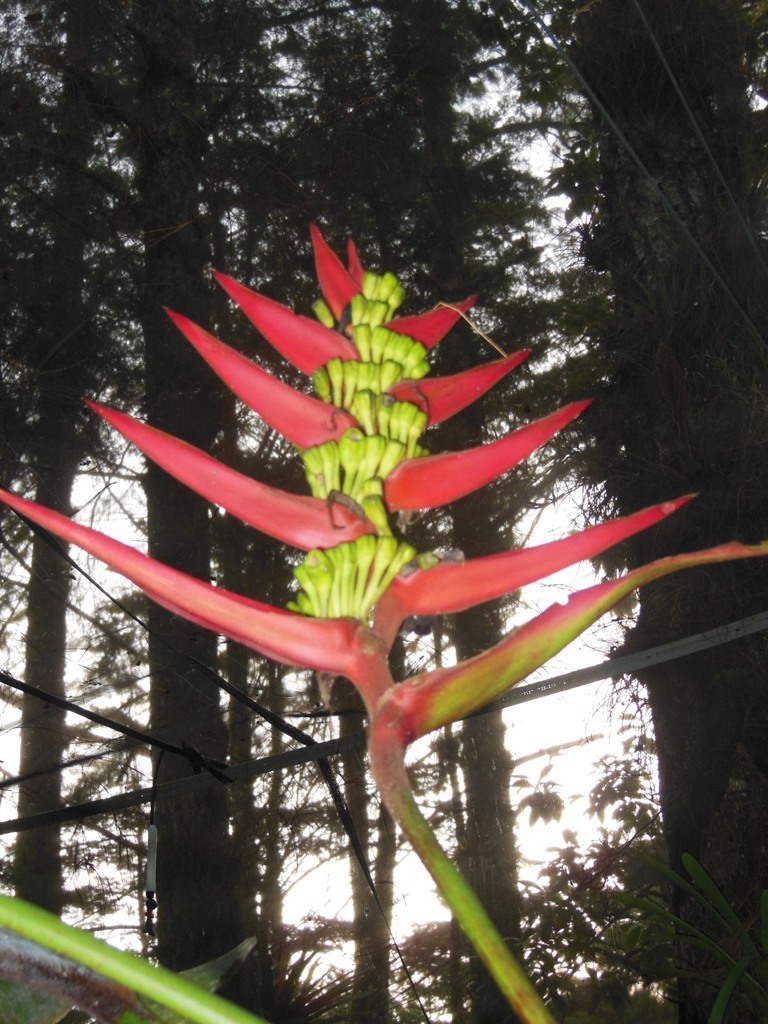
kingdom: Plantae
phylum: Tracheophyta
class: Liliopsida
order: Zingiberales
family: Heliconiaceae
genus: Heliconia
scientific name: Heliconia adflexa
